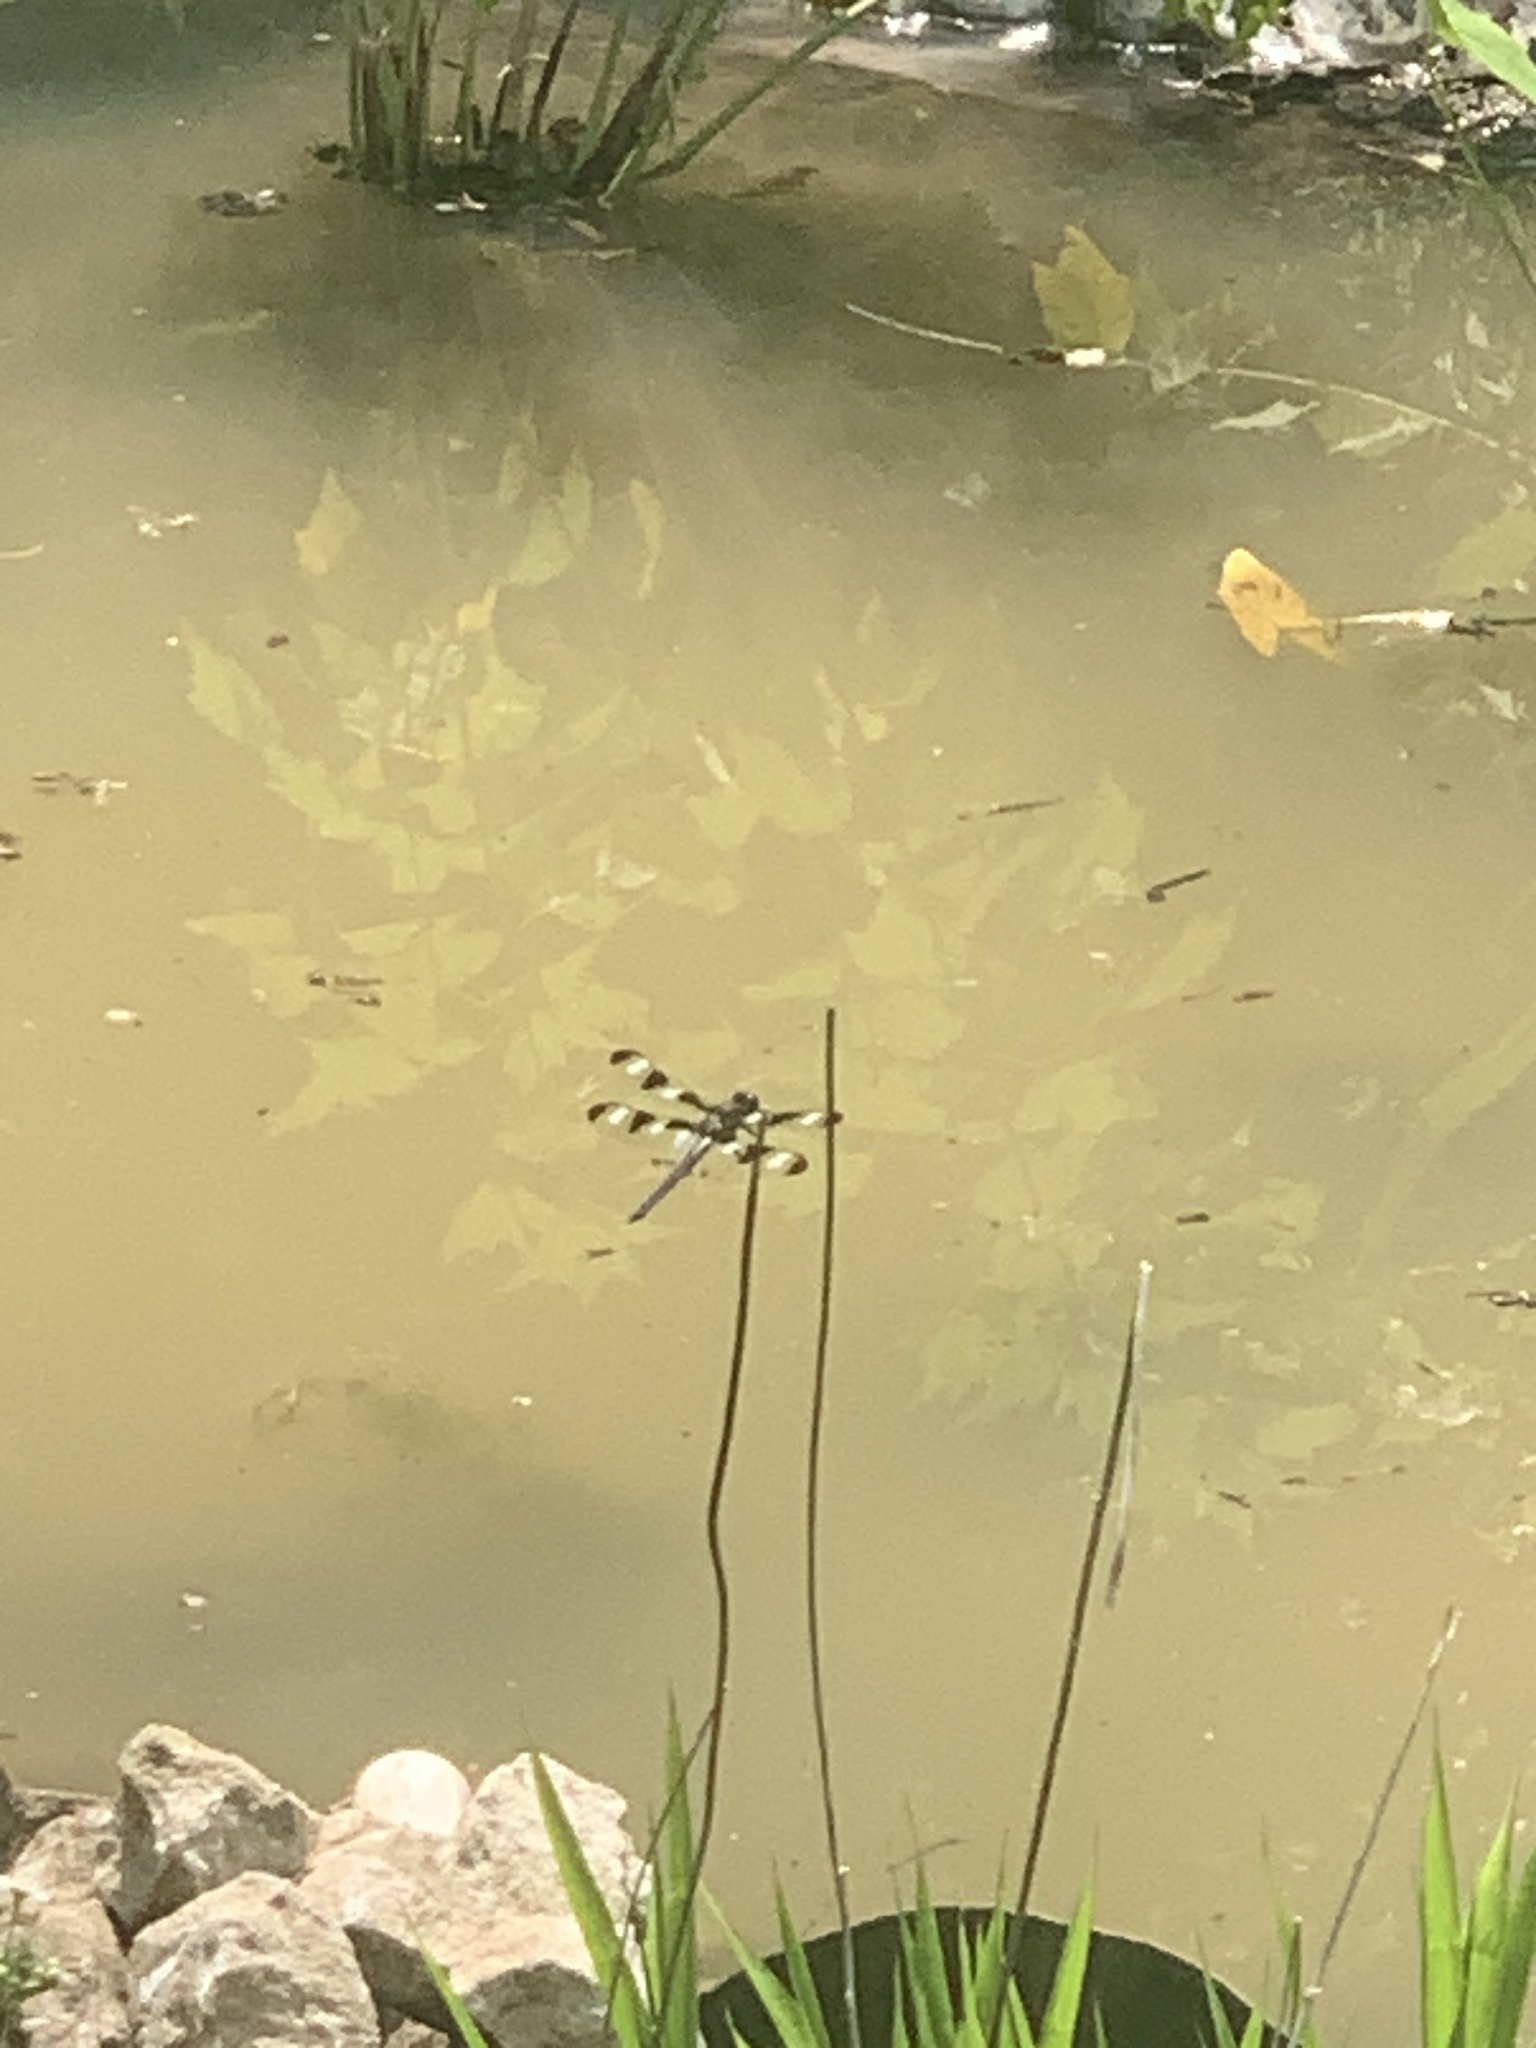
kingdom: Animalia
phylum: Arthropoda
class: Insecta
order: Odonata
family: Libellulidae
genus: Libellula
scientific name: Libellula pulchella
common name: Twelve-spotted skimmer
